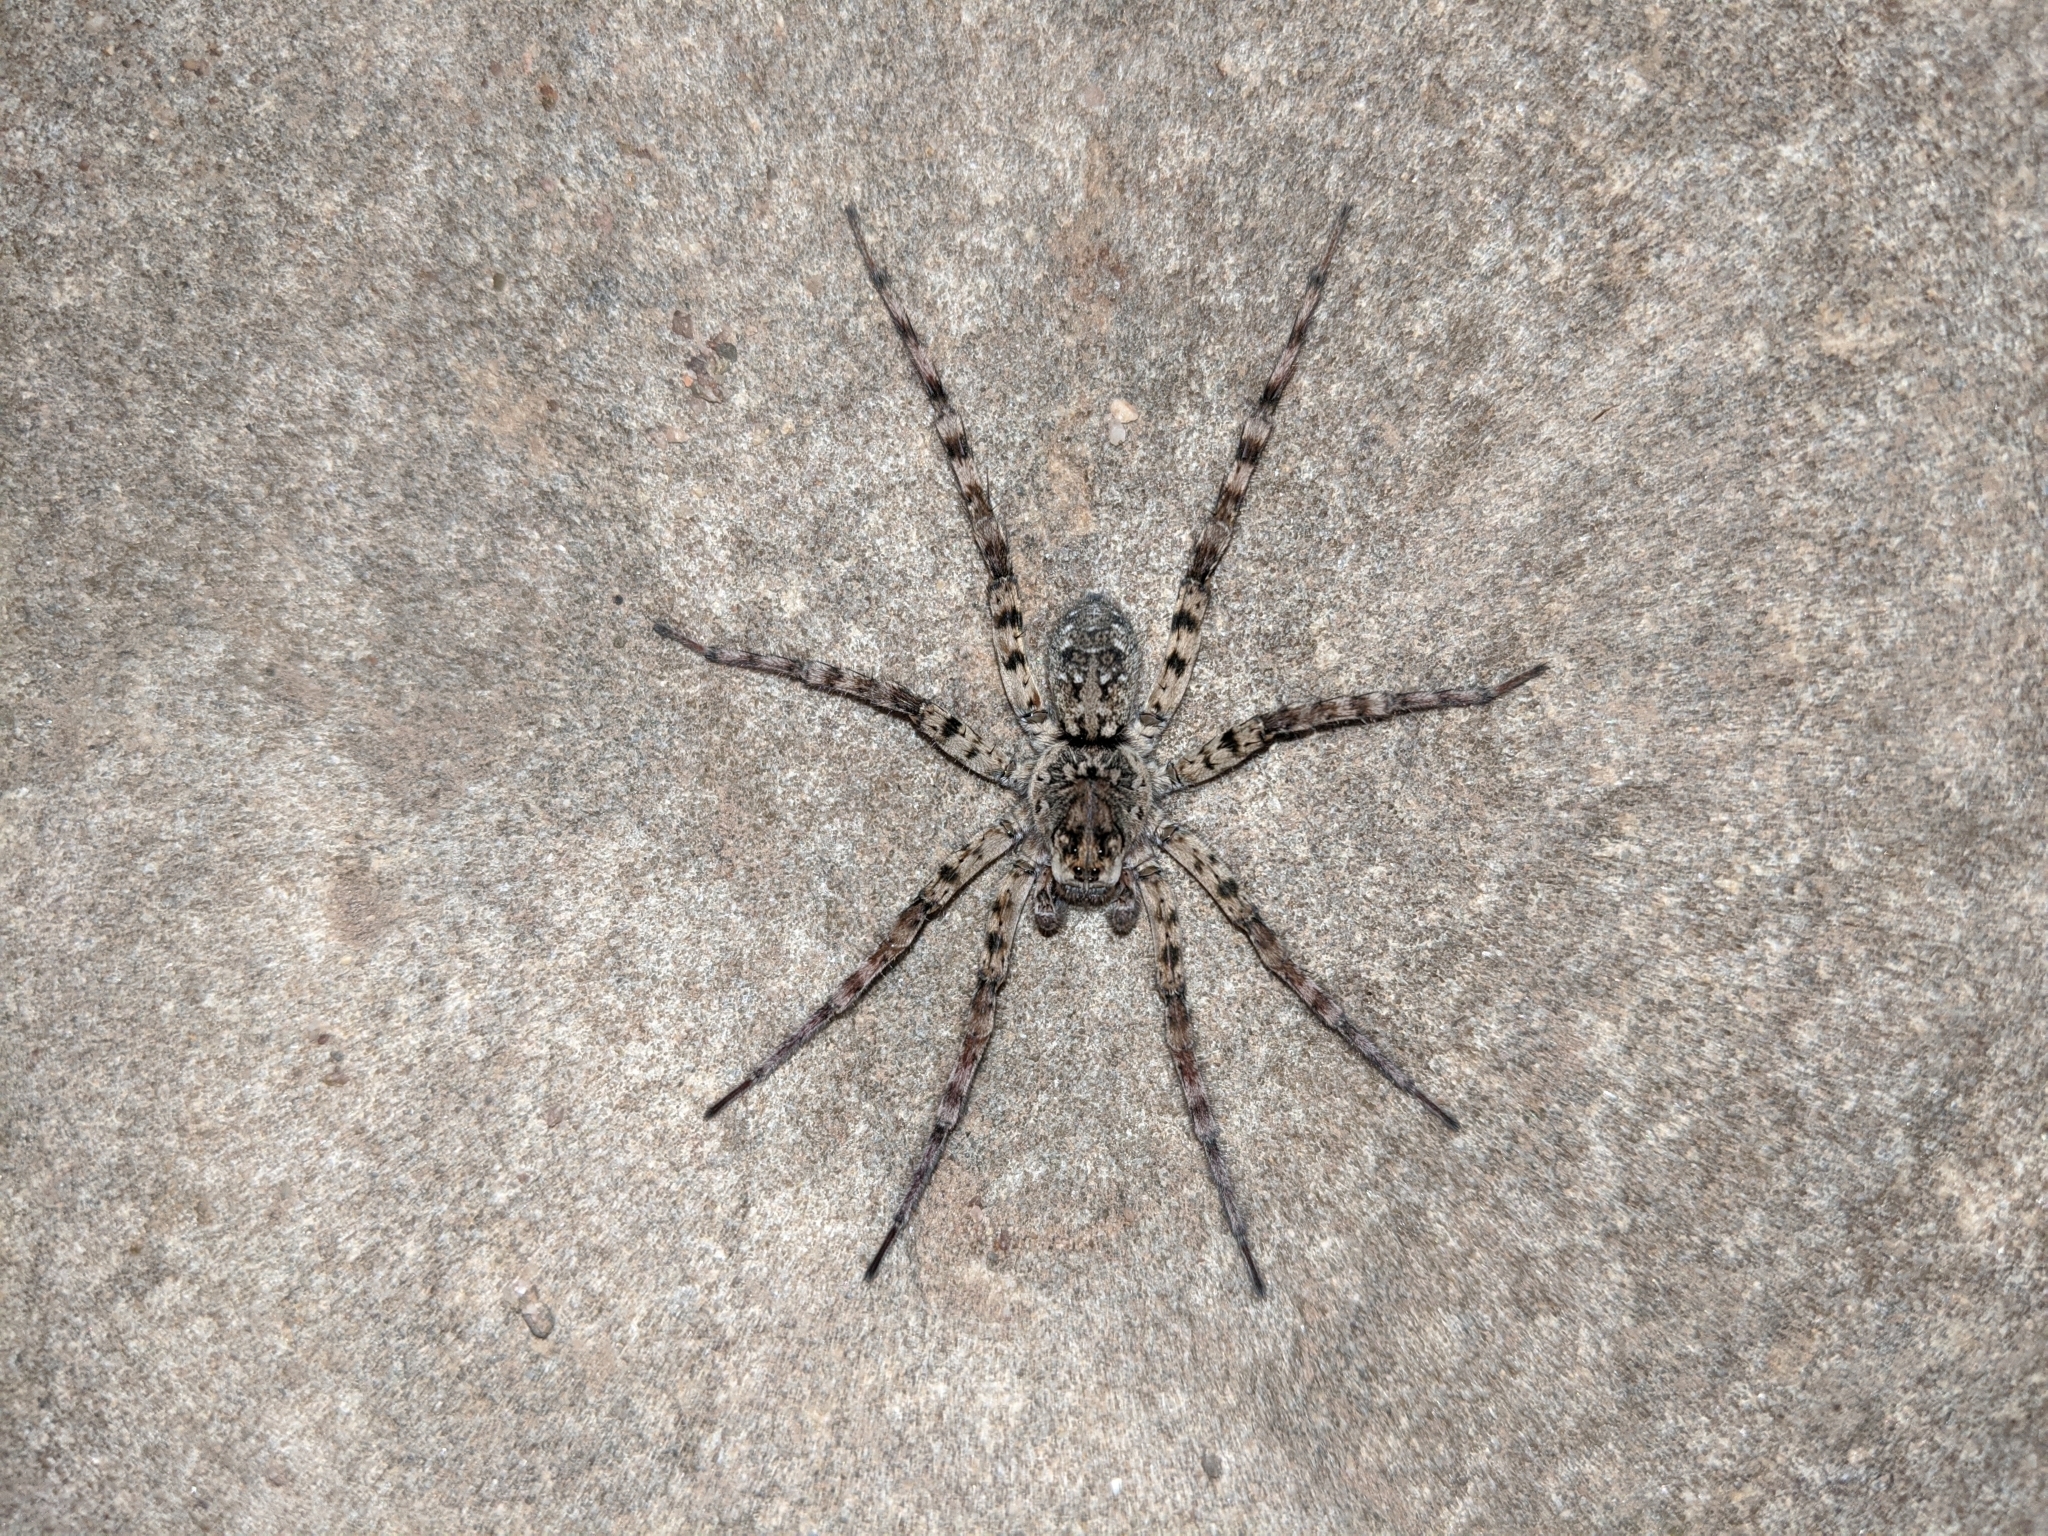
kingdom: Animalia
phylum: Arthropoda
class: Arachnida
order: Araneae
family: Lycosidae
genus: Arctosa
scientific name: Arctosa littoralis
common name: Wolf spiders
